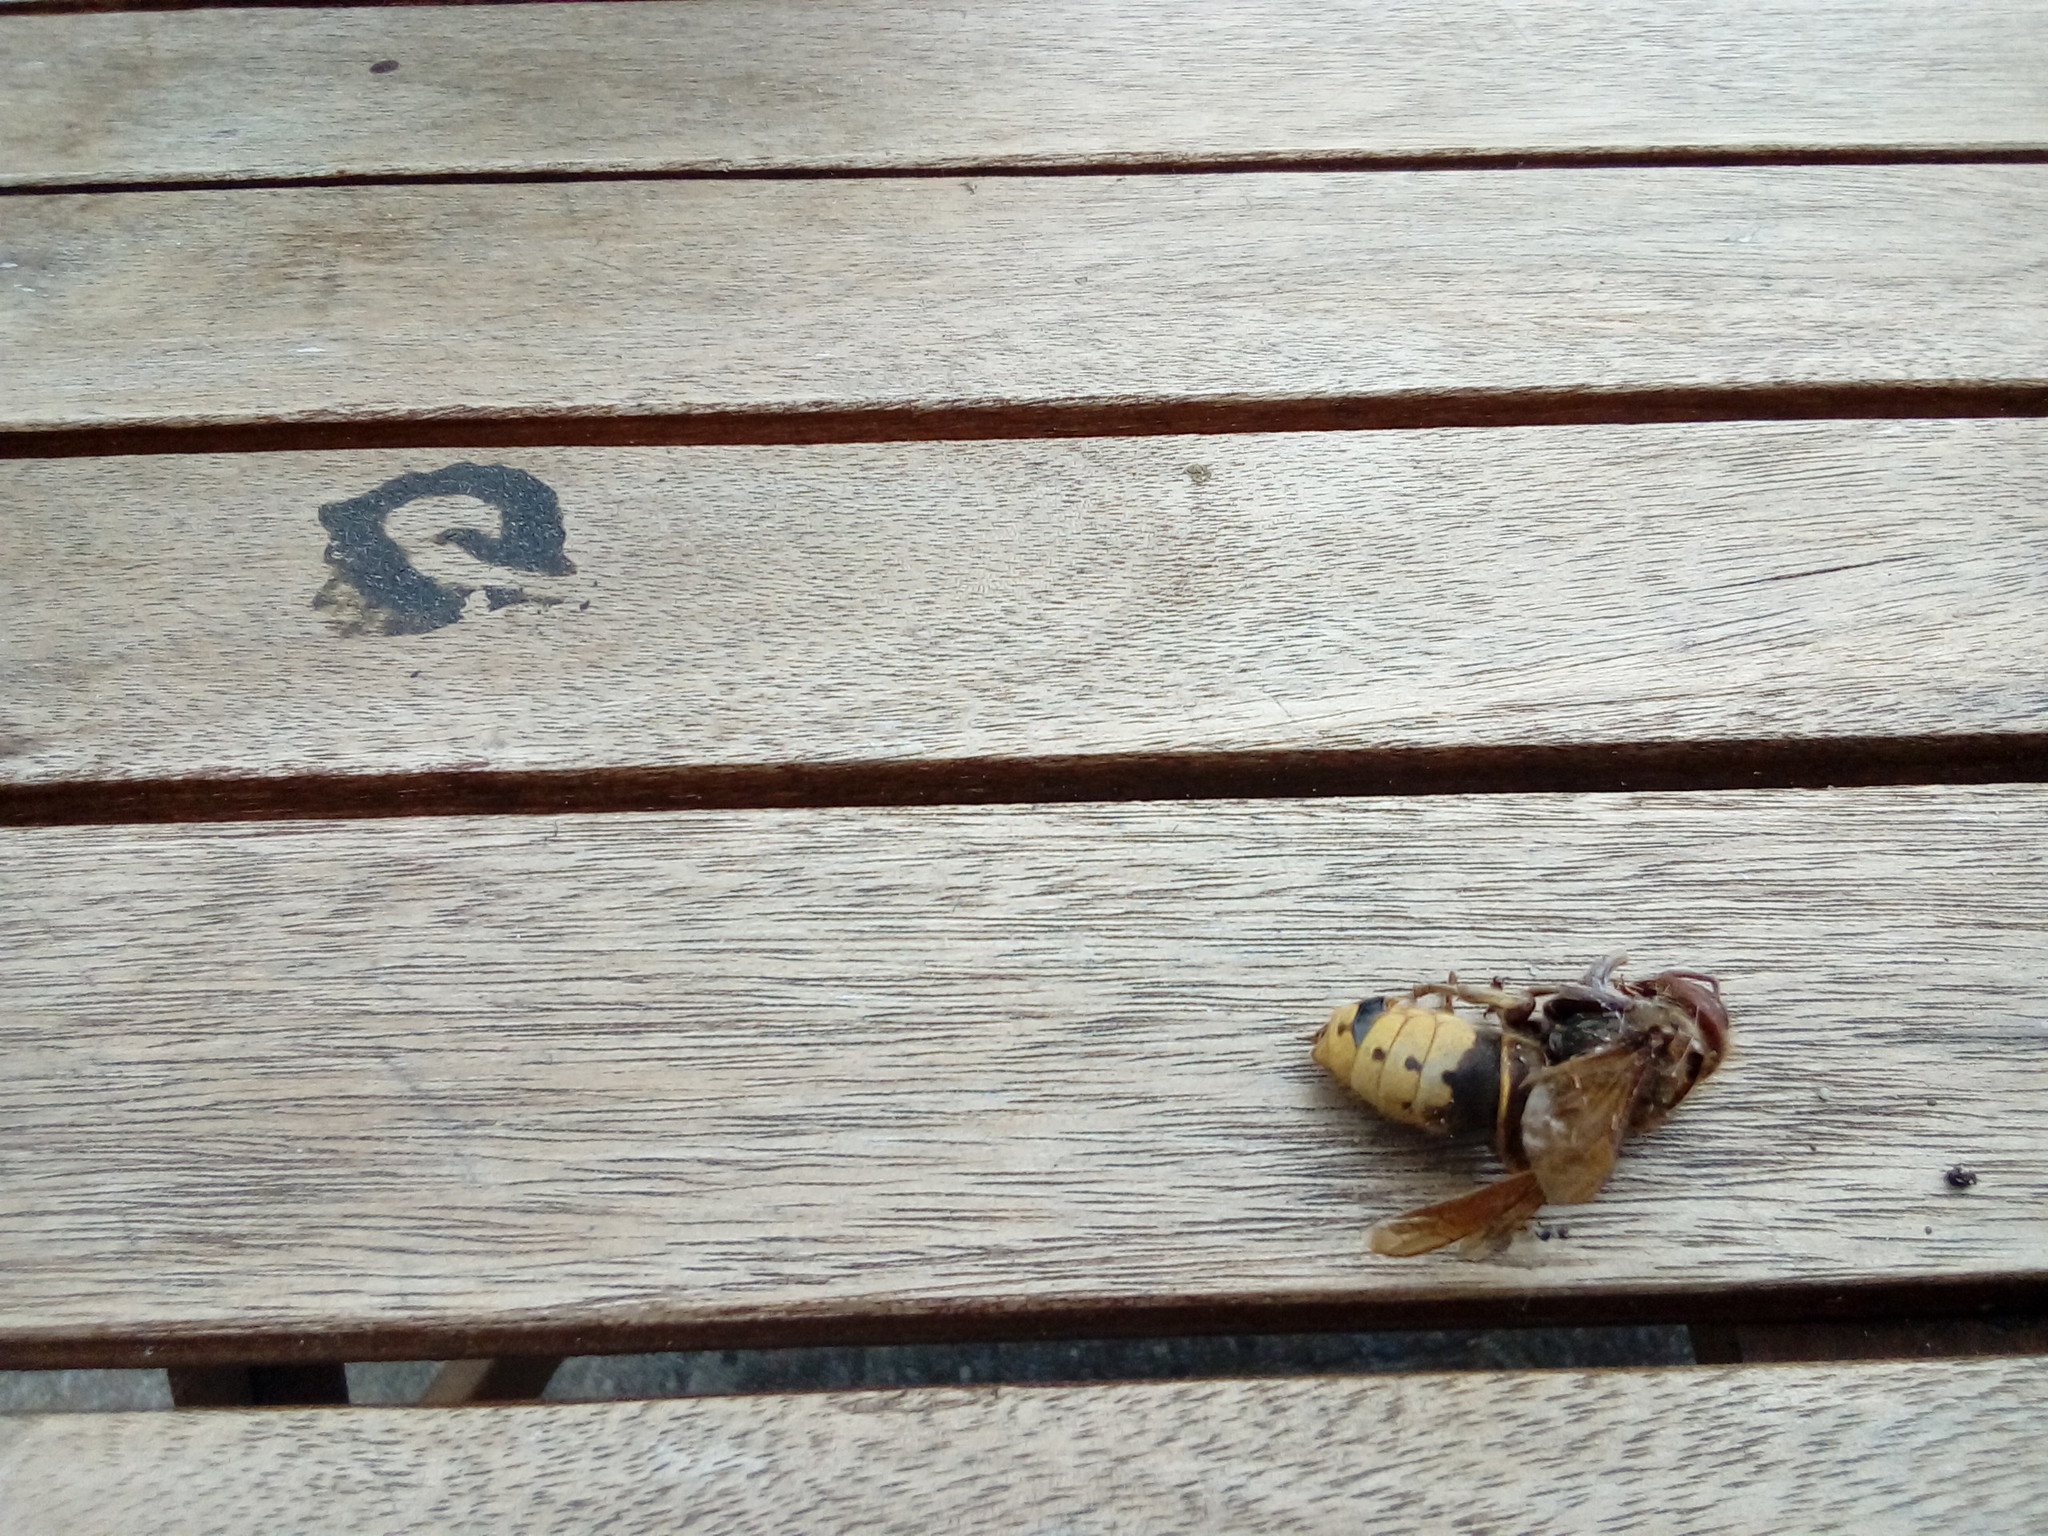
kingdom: Animalia
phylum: Arthropoda
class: Insecta
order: Hymenoptera
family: Vespidae
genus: Vespa
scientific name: Vespa crabro
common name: Hornet
